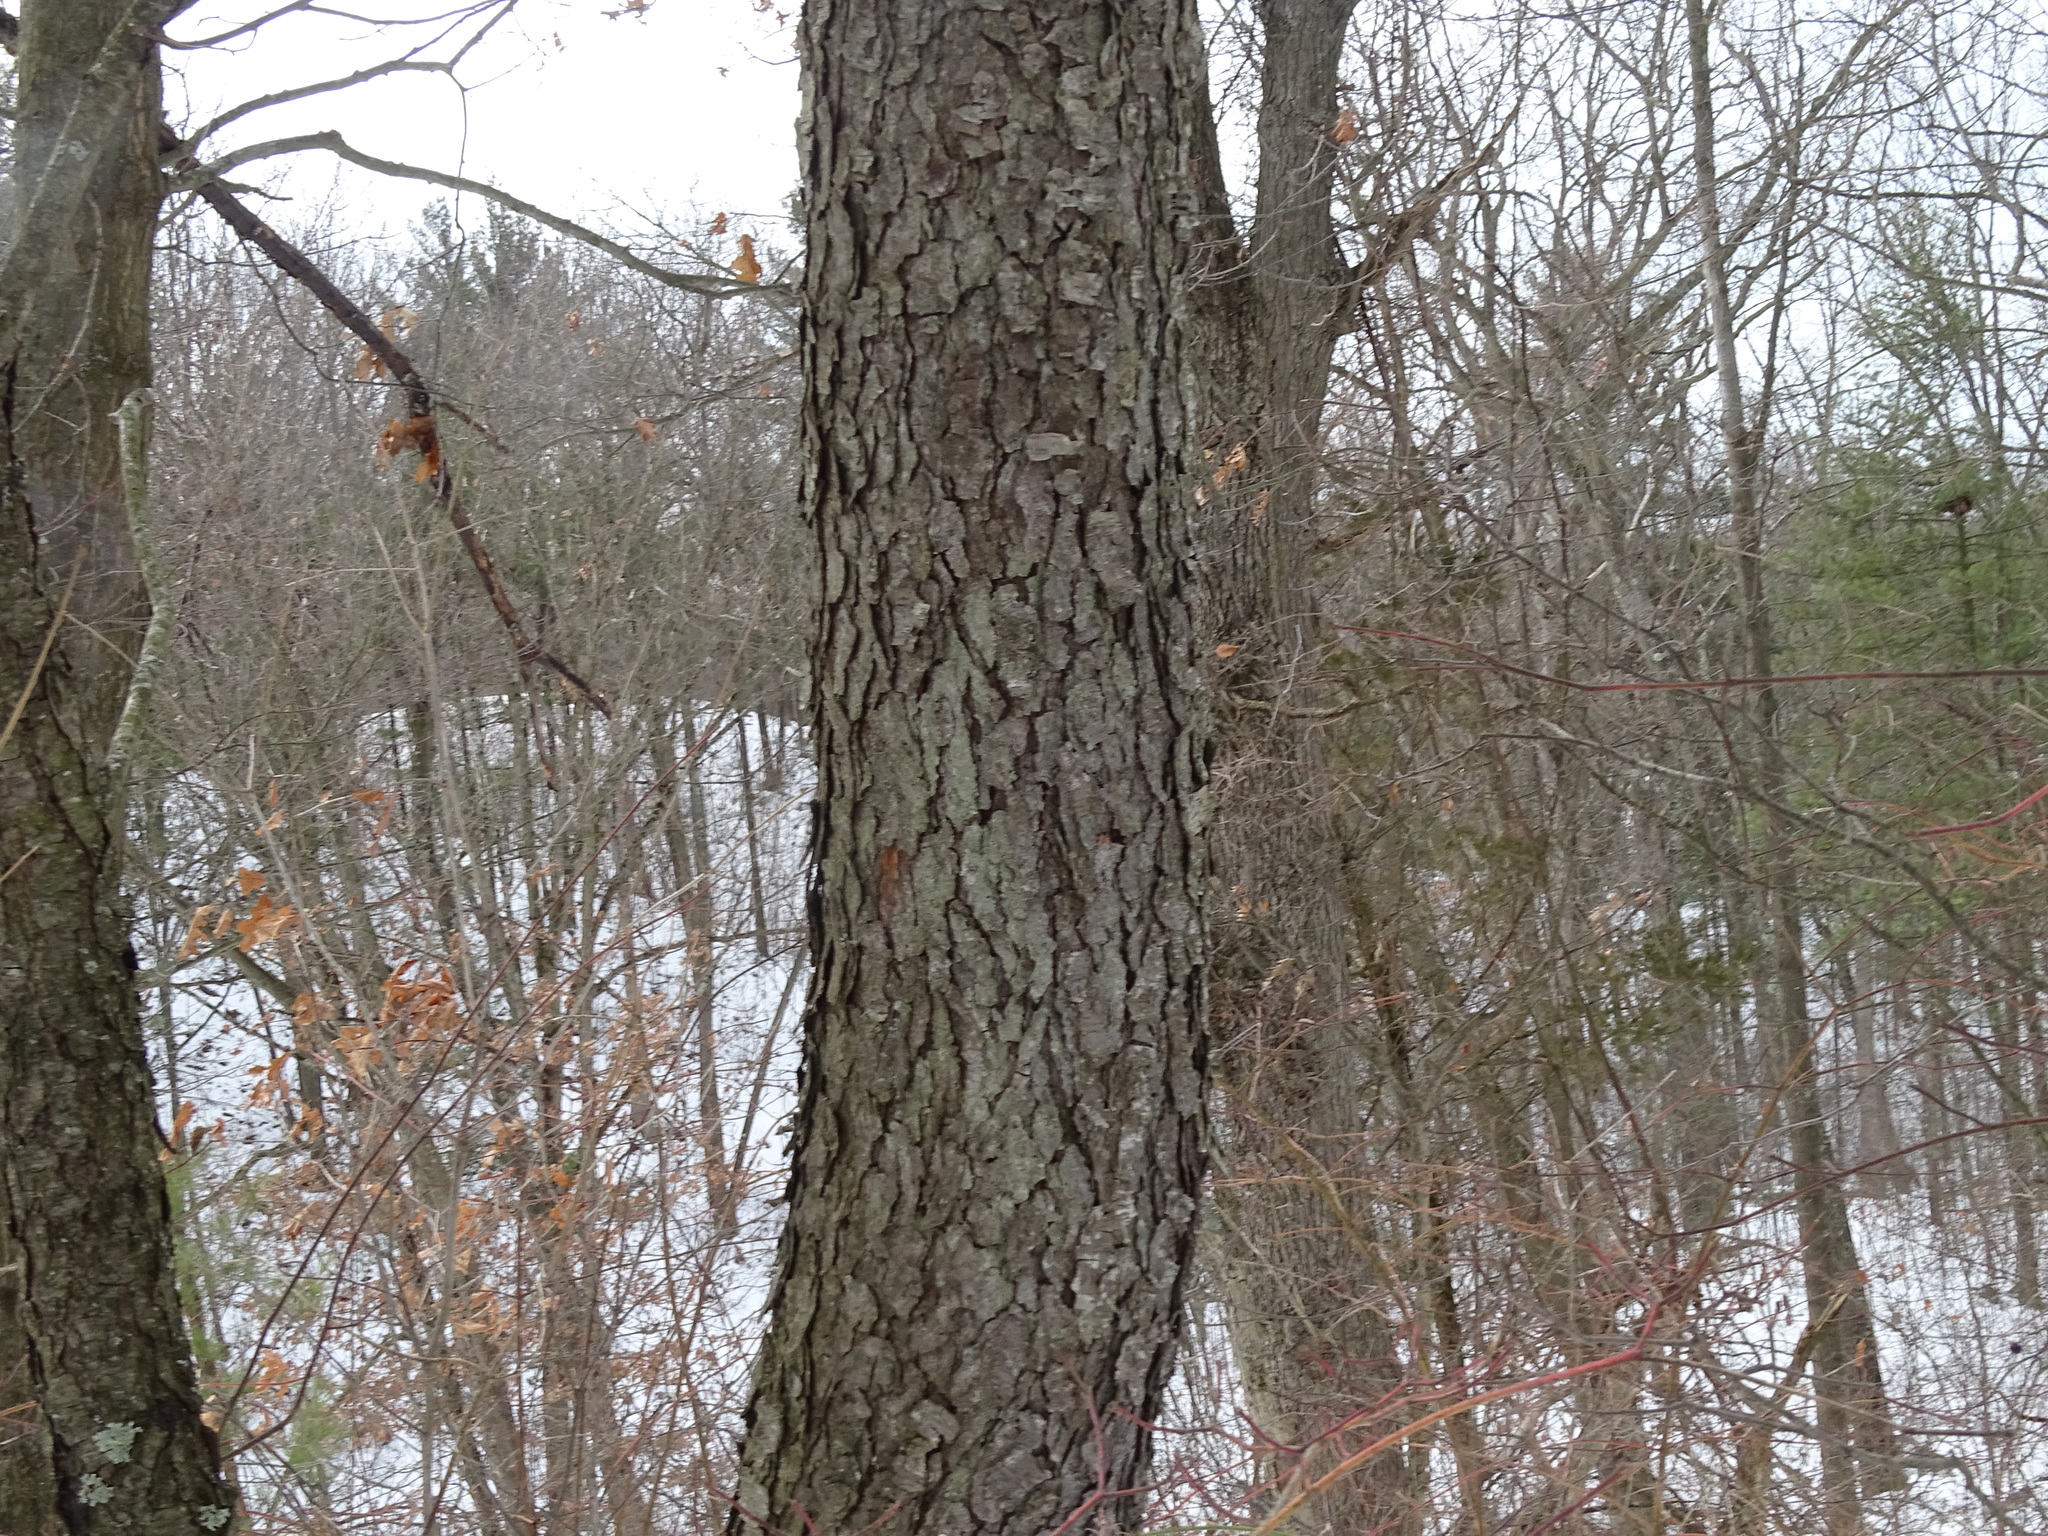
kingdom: Plantae
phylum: Tracheophyta
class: Magnoliopsida
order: Rosales
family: Rosaceae
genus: Prunus
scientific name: Prunus serotina
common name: Black cherry
